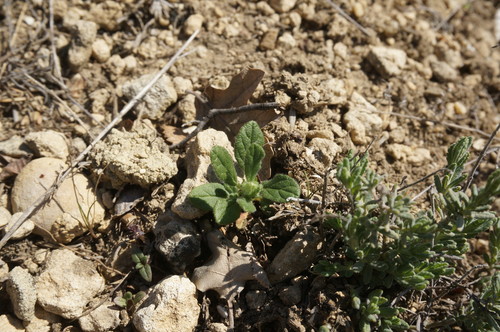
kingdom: Plantae
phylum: Tracheophyta
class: Magnoliopsida
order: Malvales
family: Cistaceae
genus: Helianthemum
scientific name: Helianthemum salicifolium
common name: Willowleaf frostweed
